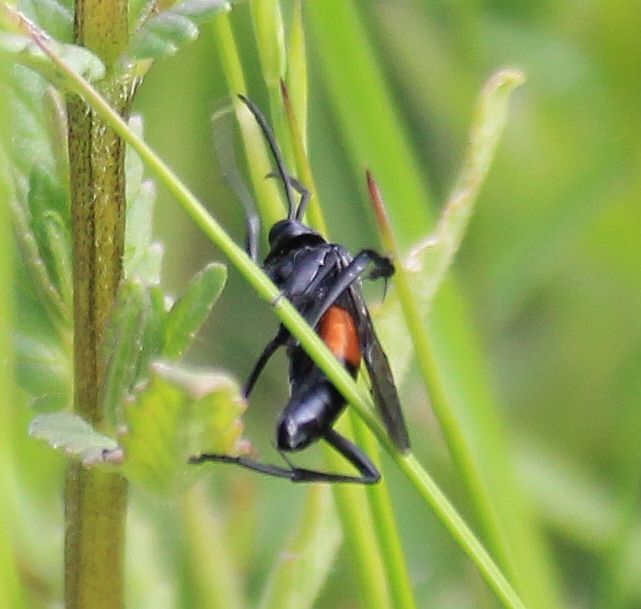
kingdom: Animalia
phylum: Arthropoda
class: Insecta
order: Hymenoptera
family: Tenthredinidae
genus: Macrophya
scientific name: Macrophya annulata
